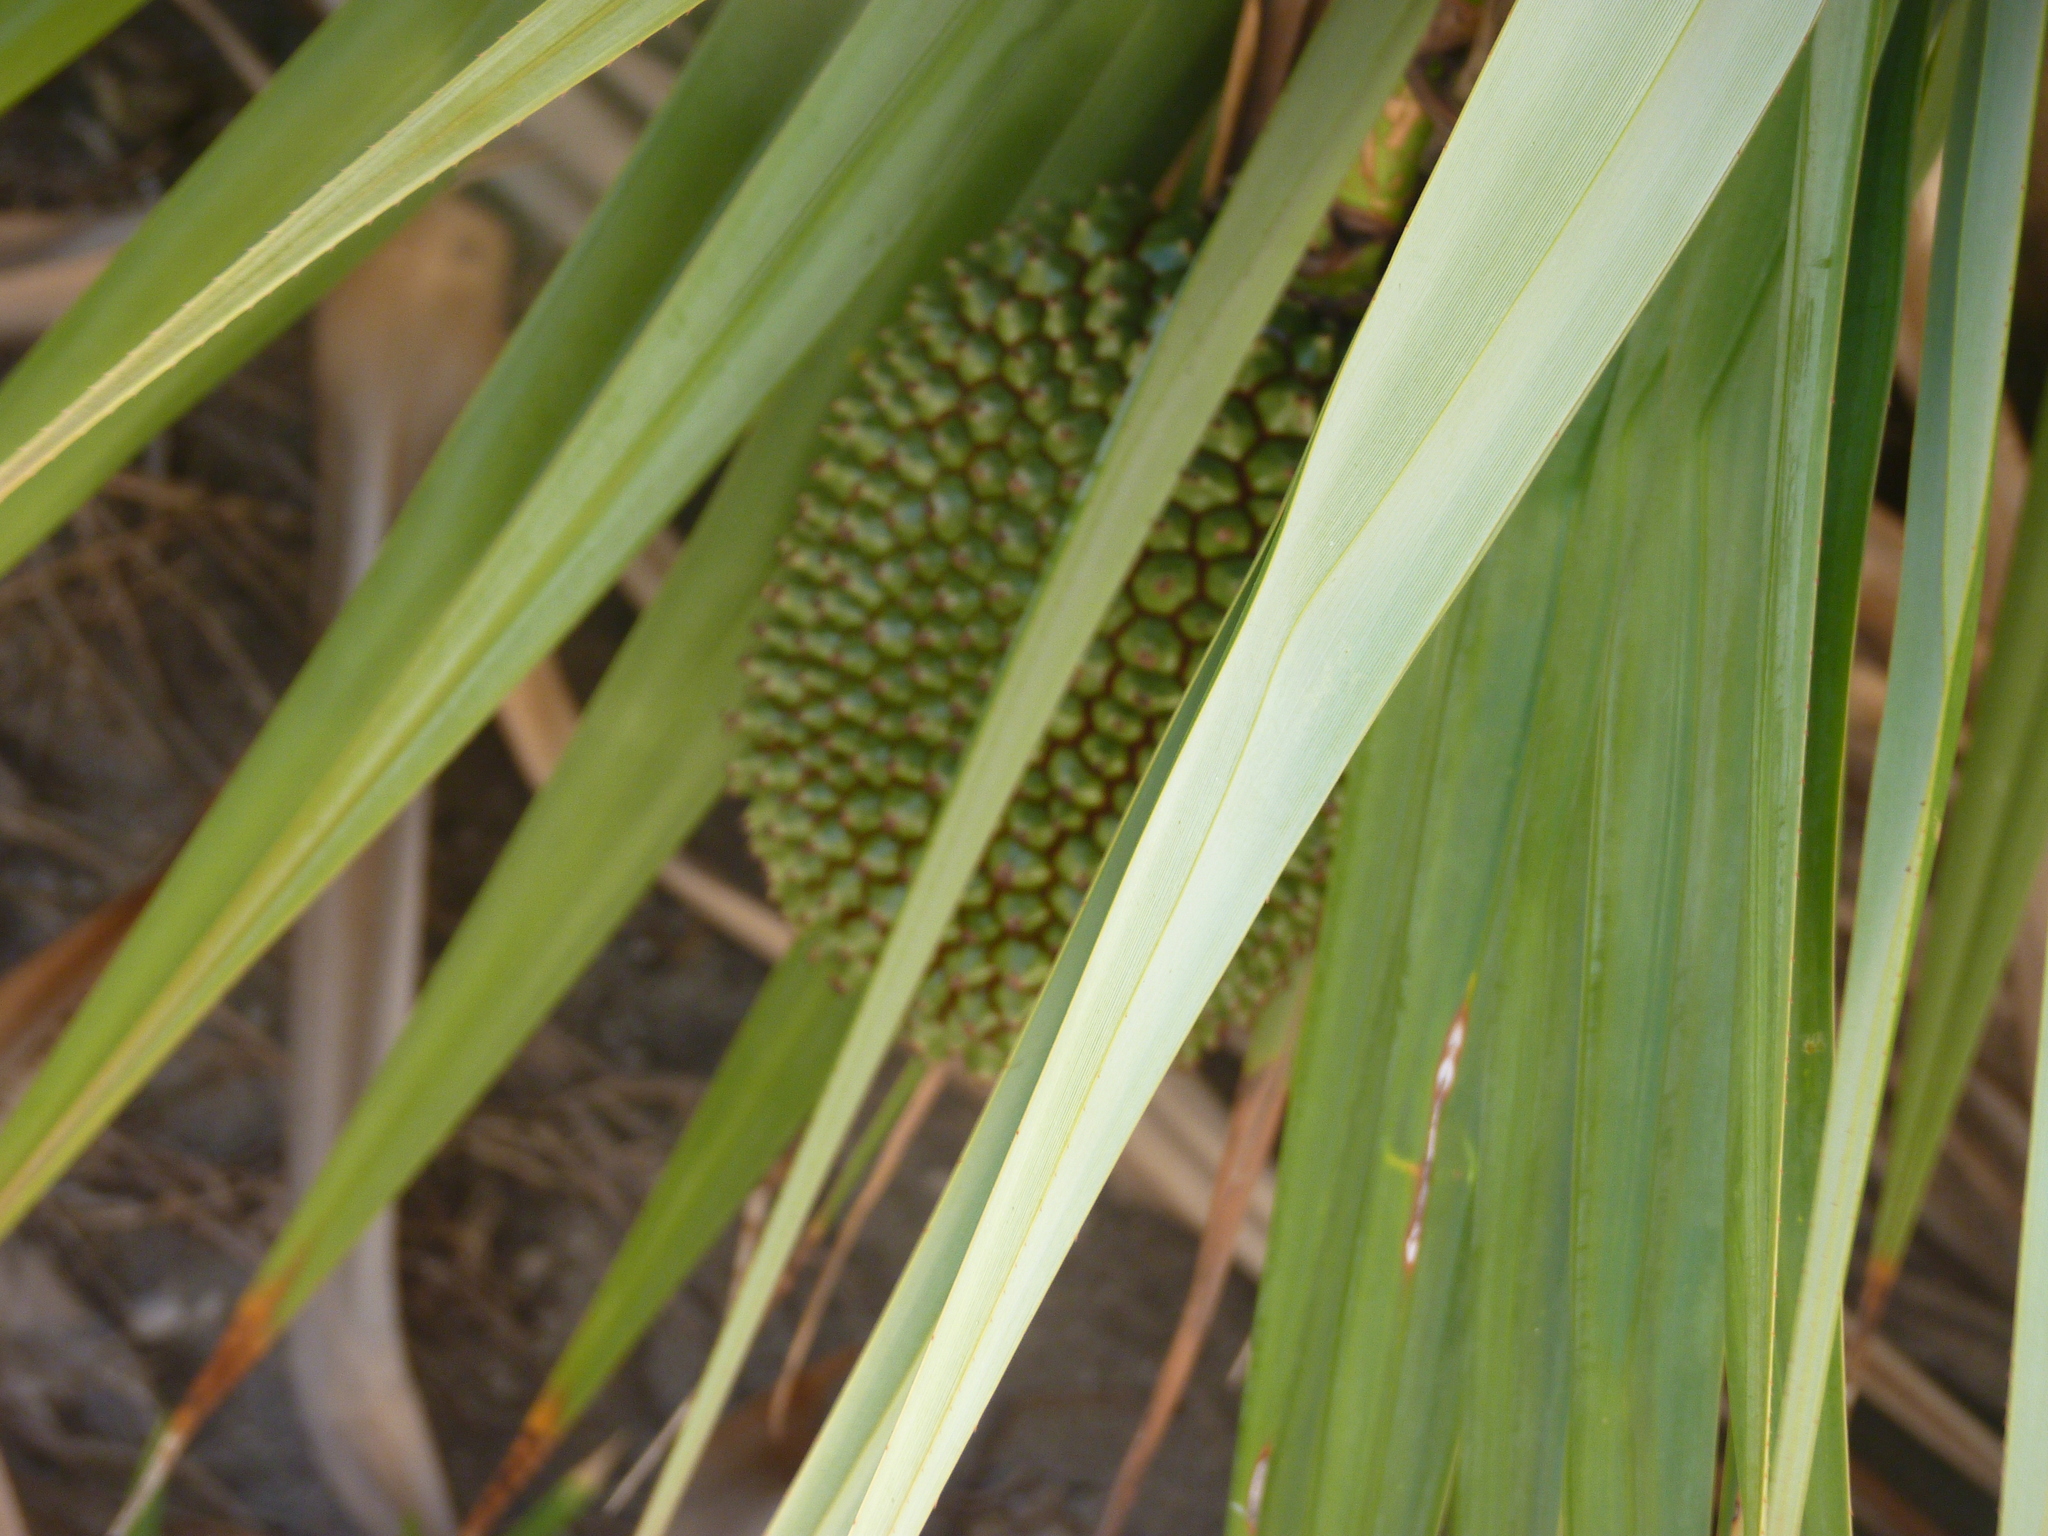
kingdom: Plantae
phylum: Tracheophyta
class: Liliopsida
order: Pandanales
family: Pandanaceae
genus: Pandanus
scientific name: Pandanus vandermeeschii
